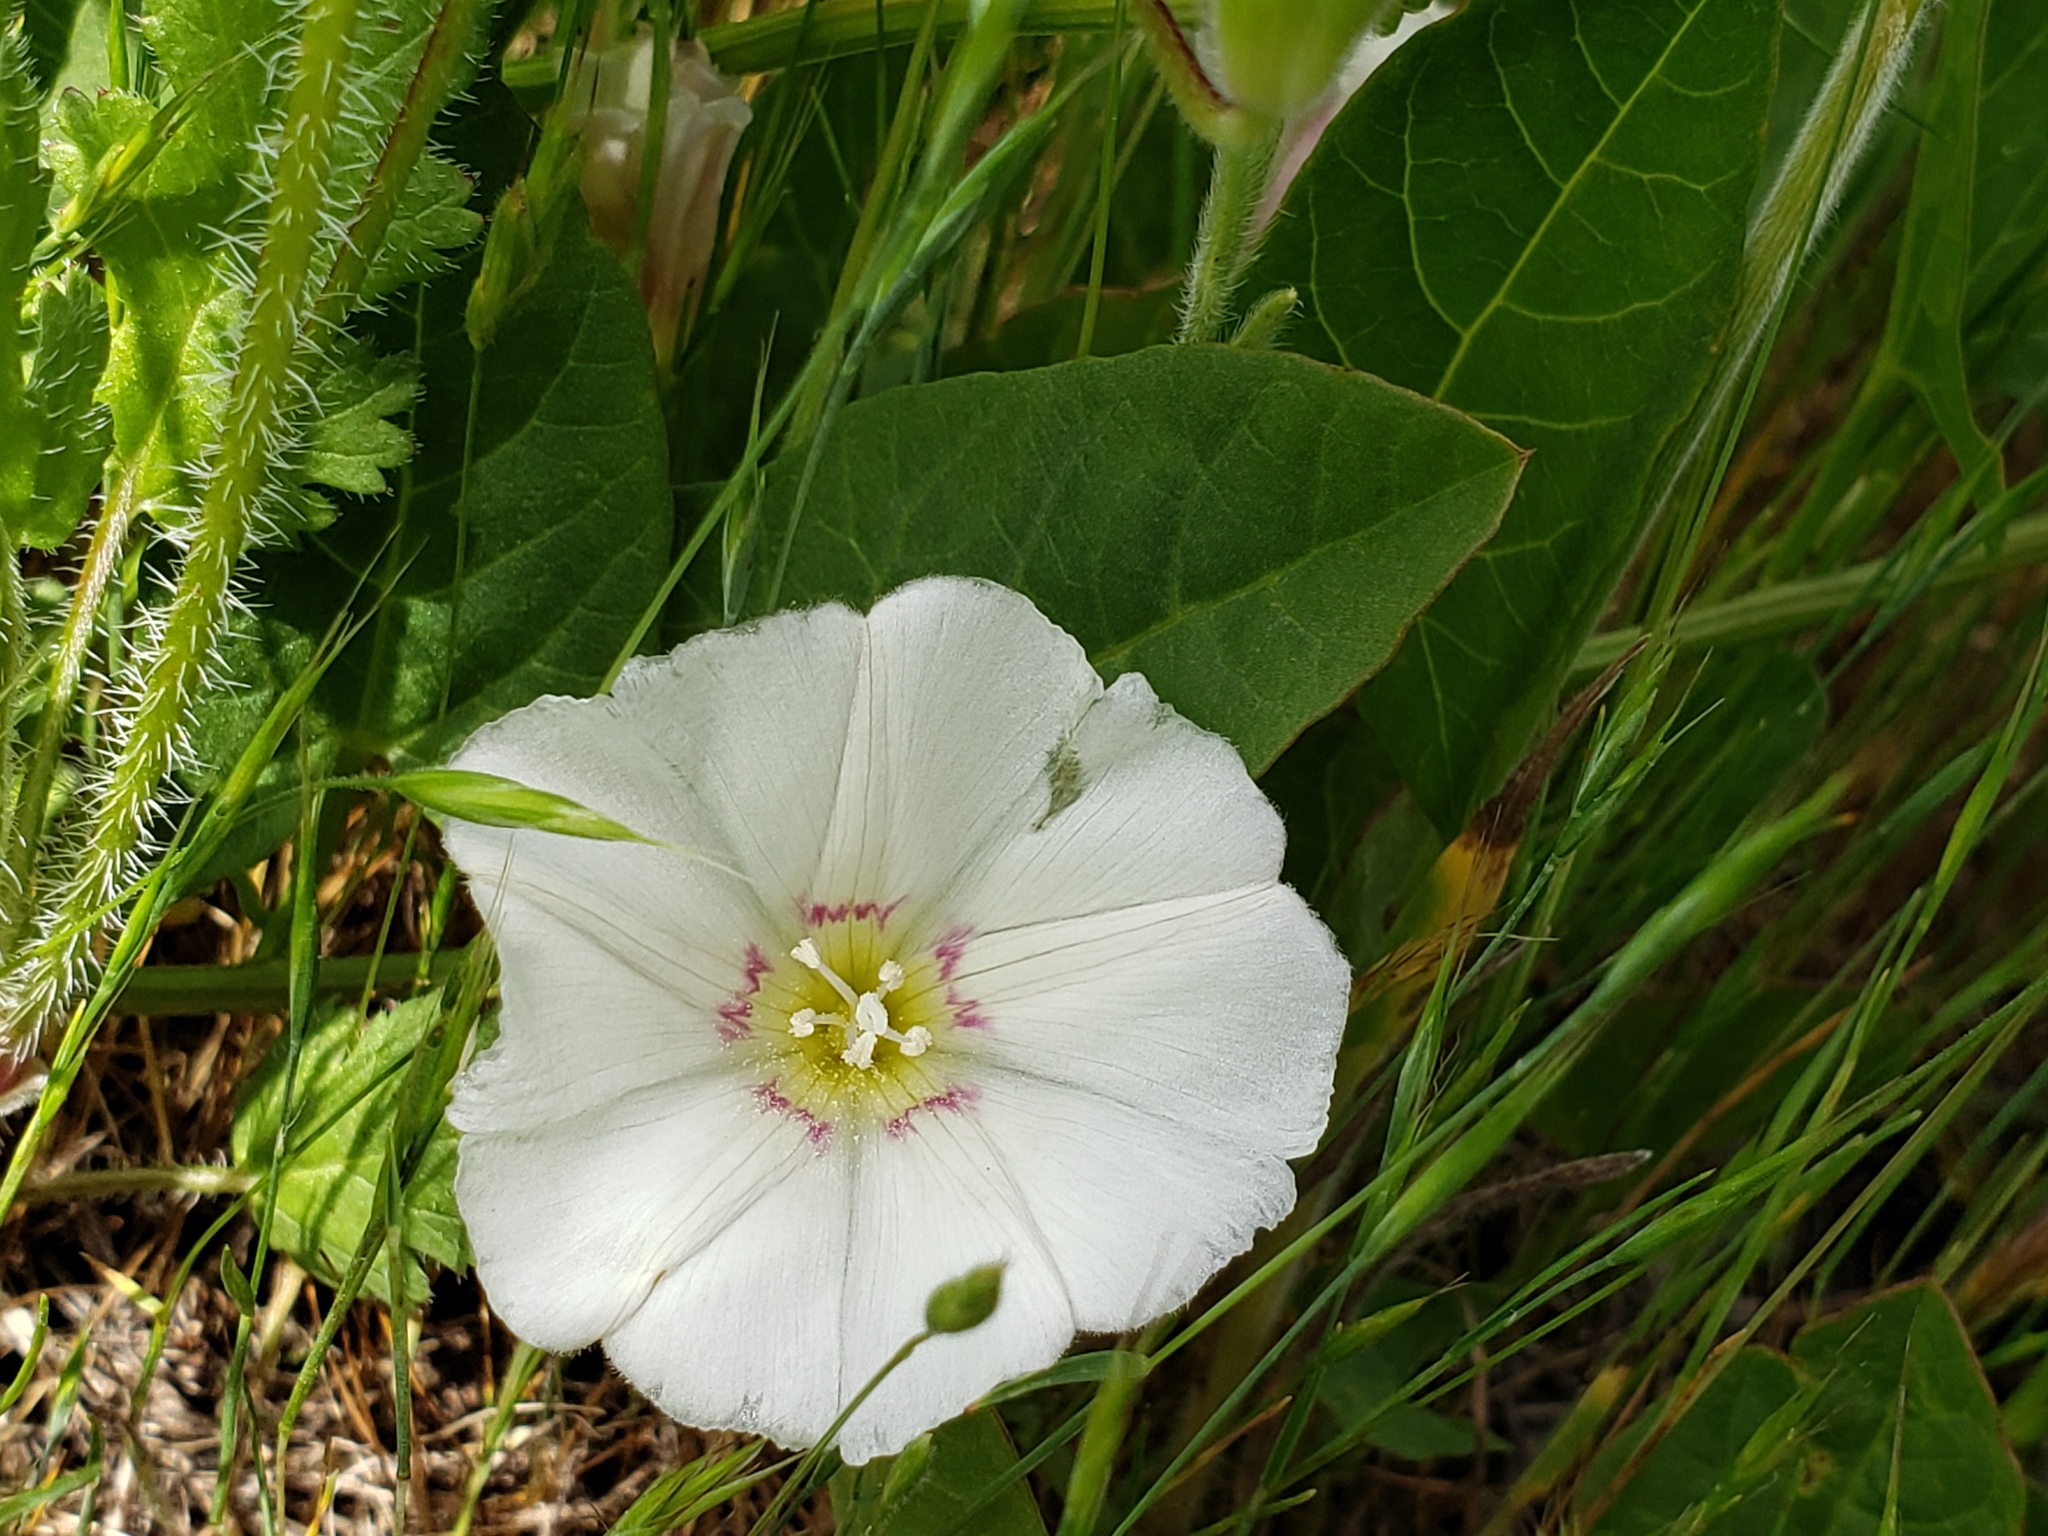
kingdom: Plantae
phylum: Tracheophyta
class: Magnoliopsida
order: Solanales
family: Convolvulaceae
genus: Convolvulus
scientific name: Convolvulus arvensis
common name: Field bindweed
